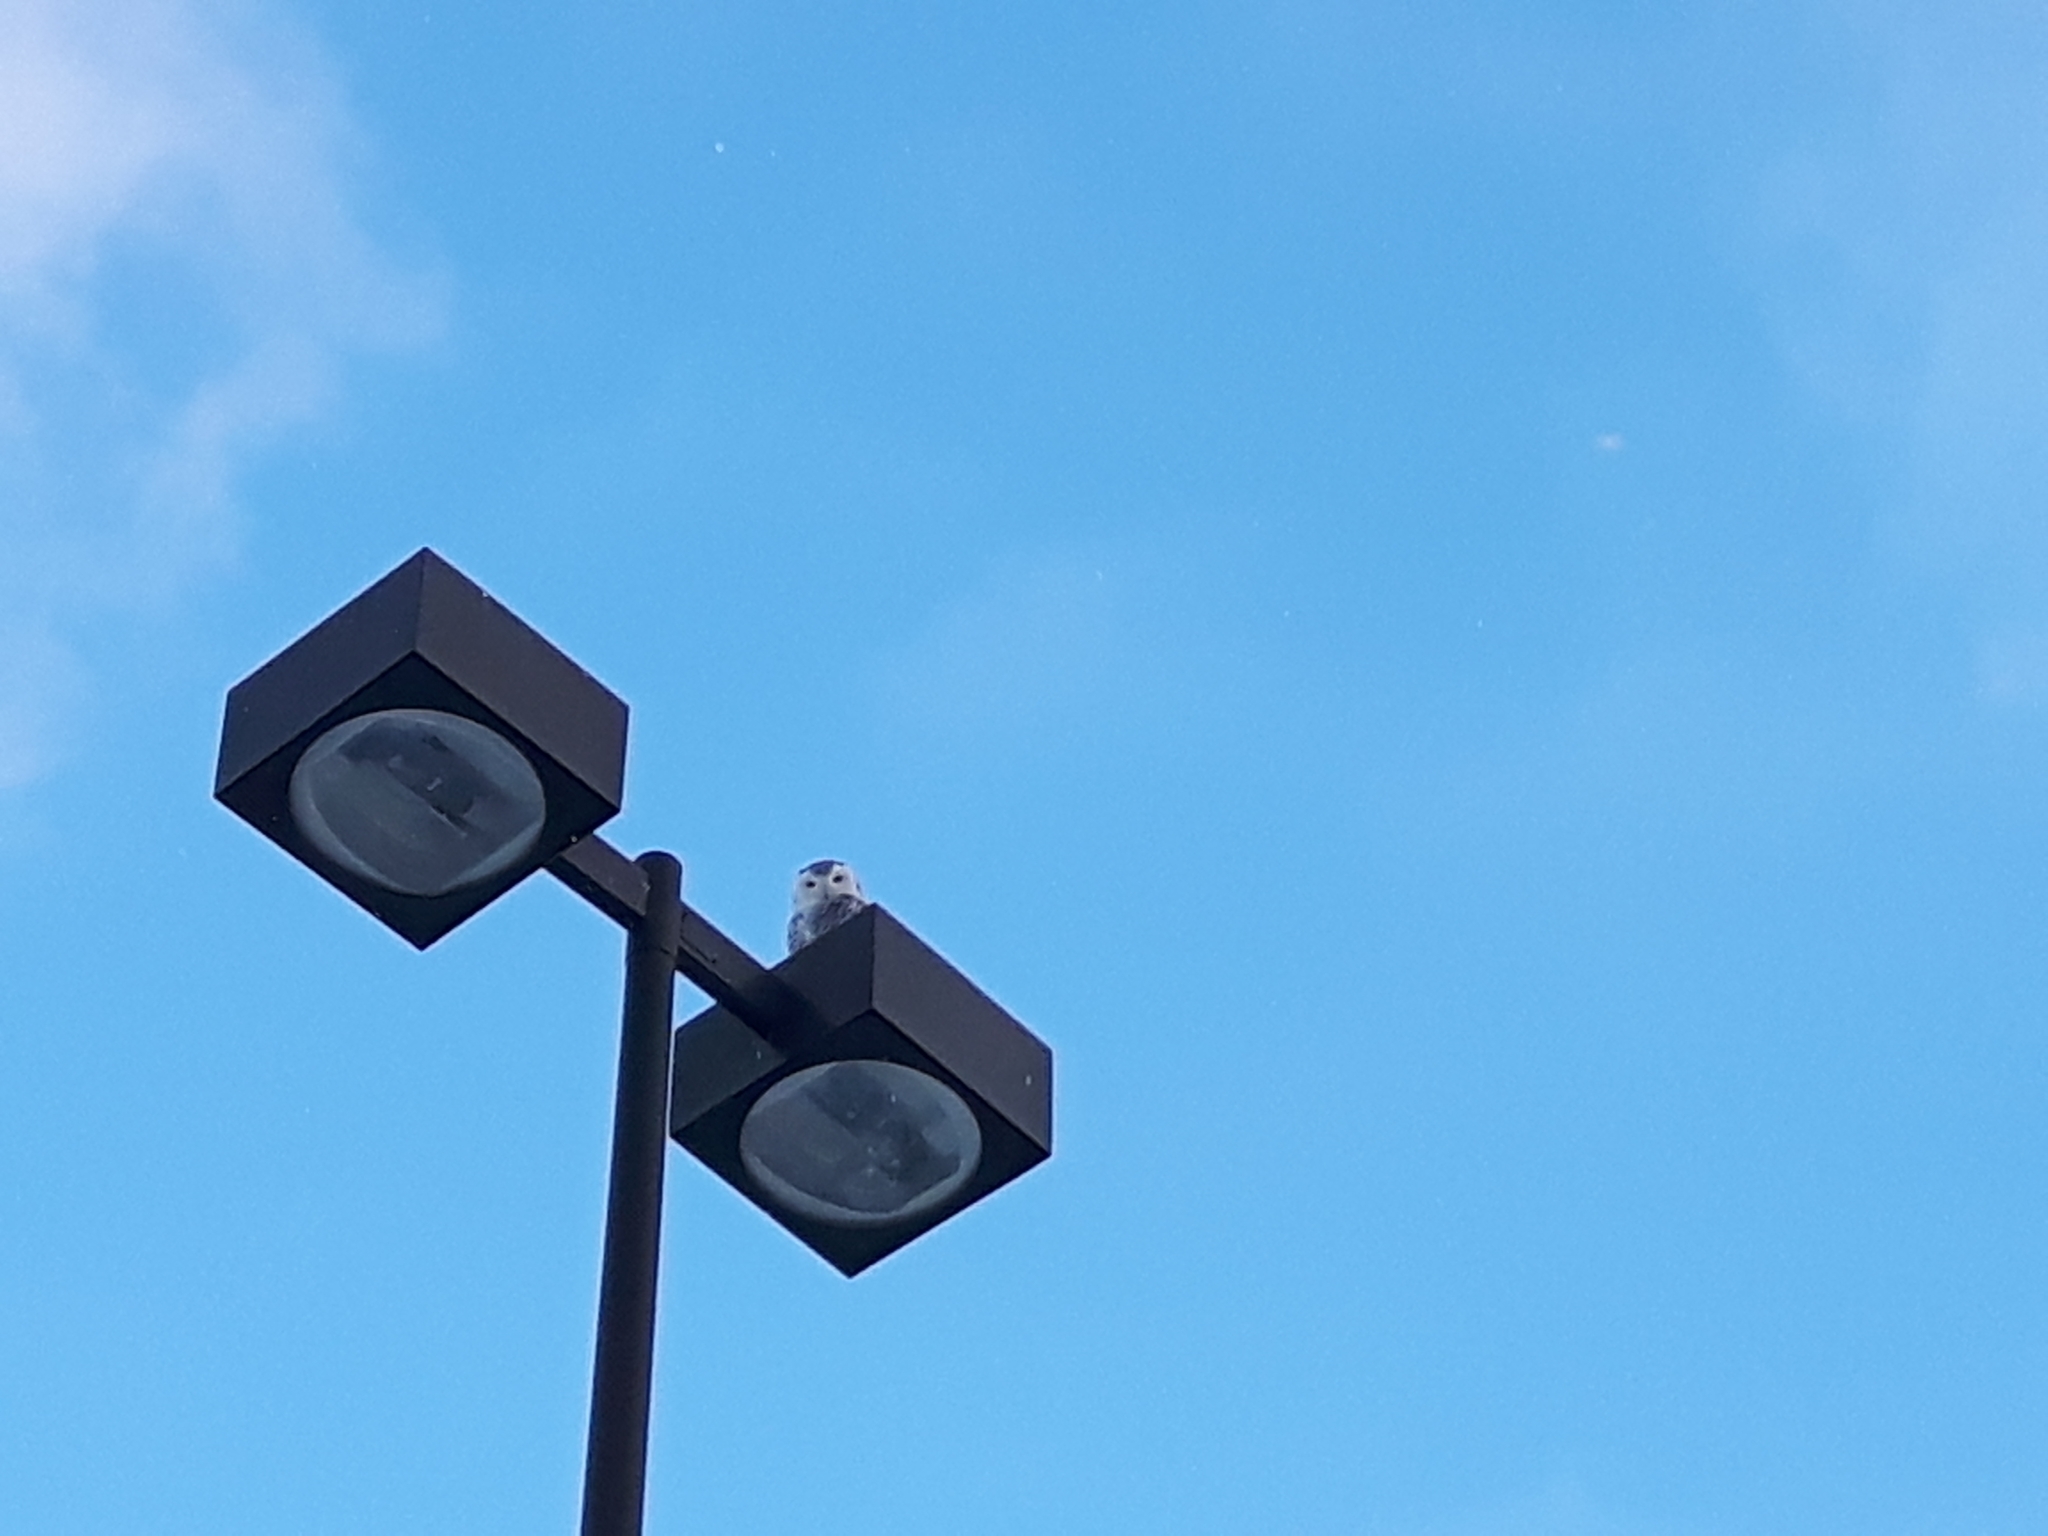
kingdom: Animalia
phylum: Chordata
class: Aves
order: Strigiformes
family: Strigidae
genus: Bubo
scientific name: Bubo scandiacus
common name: Snowy owl
